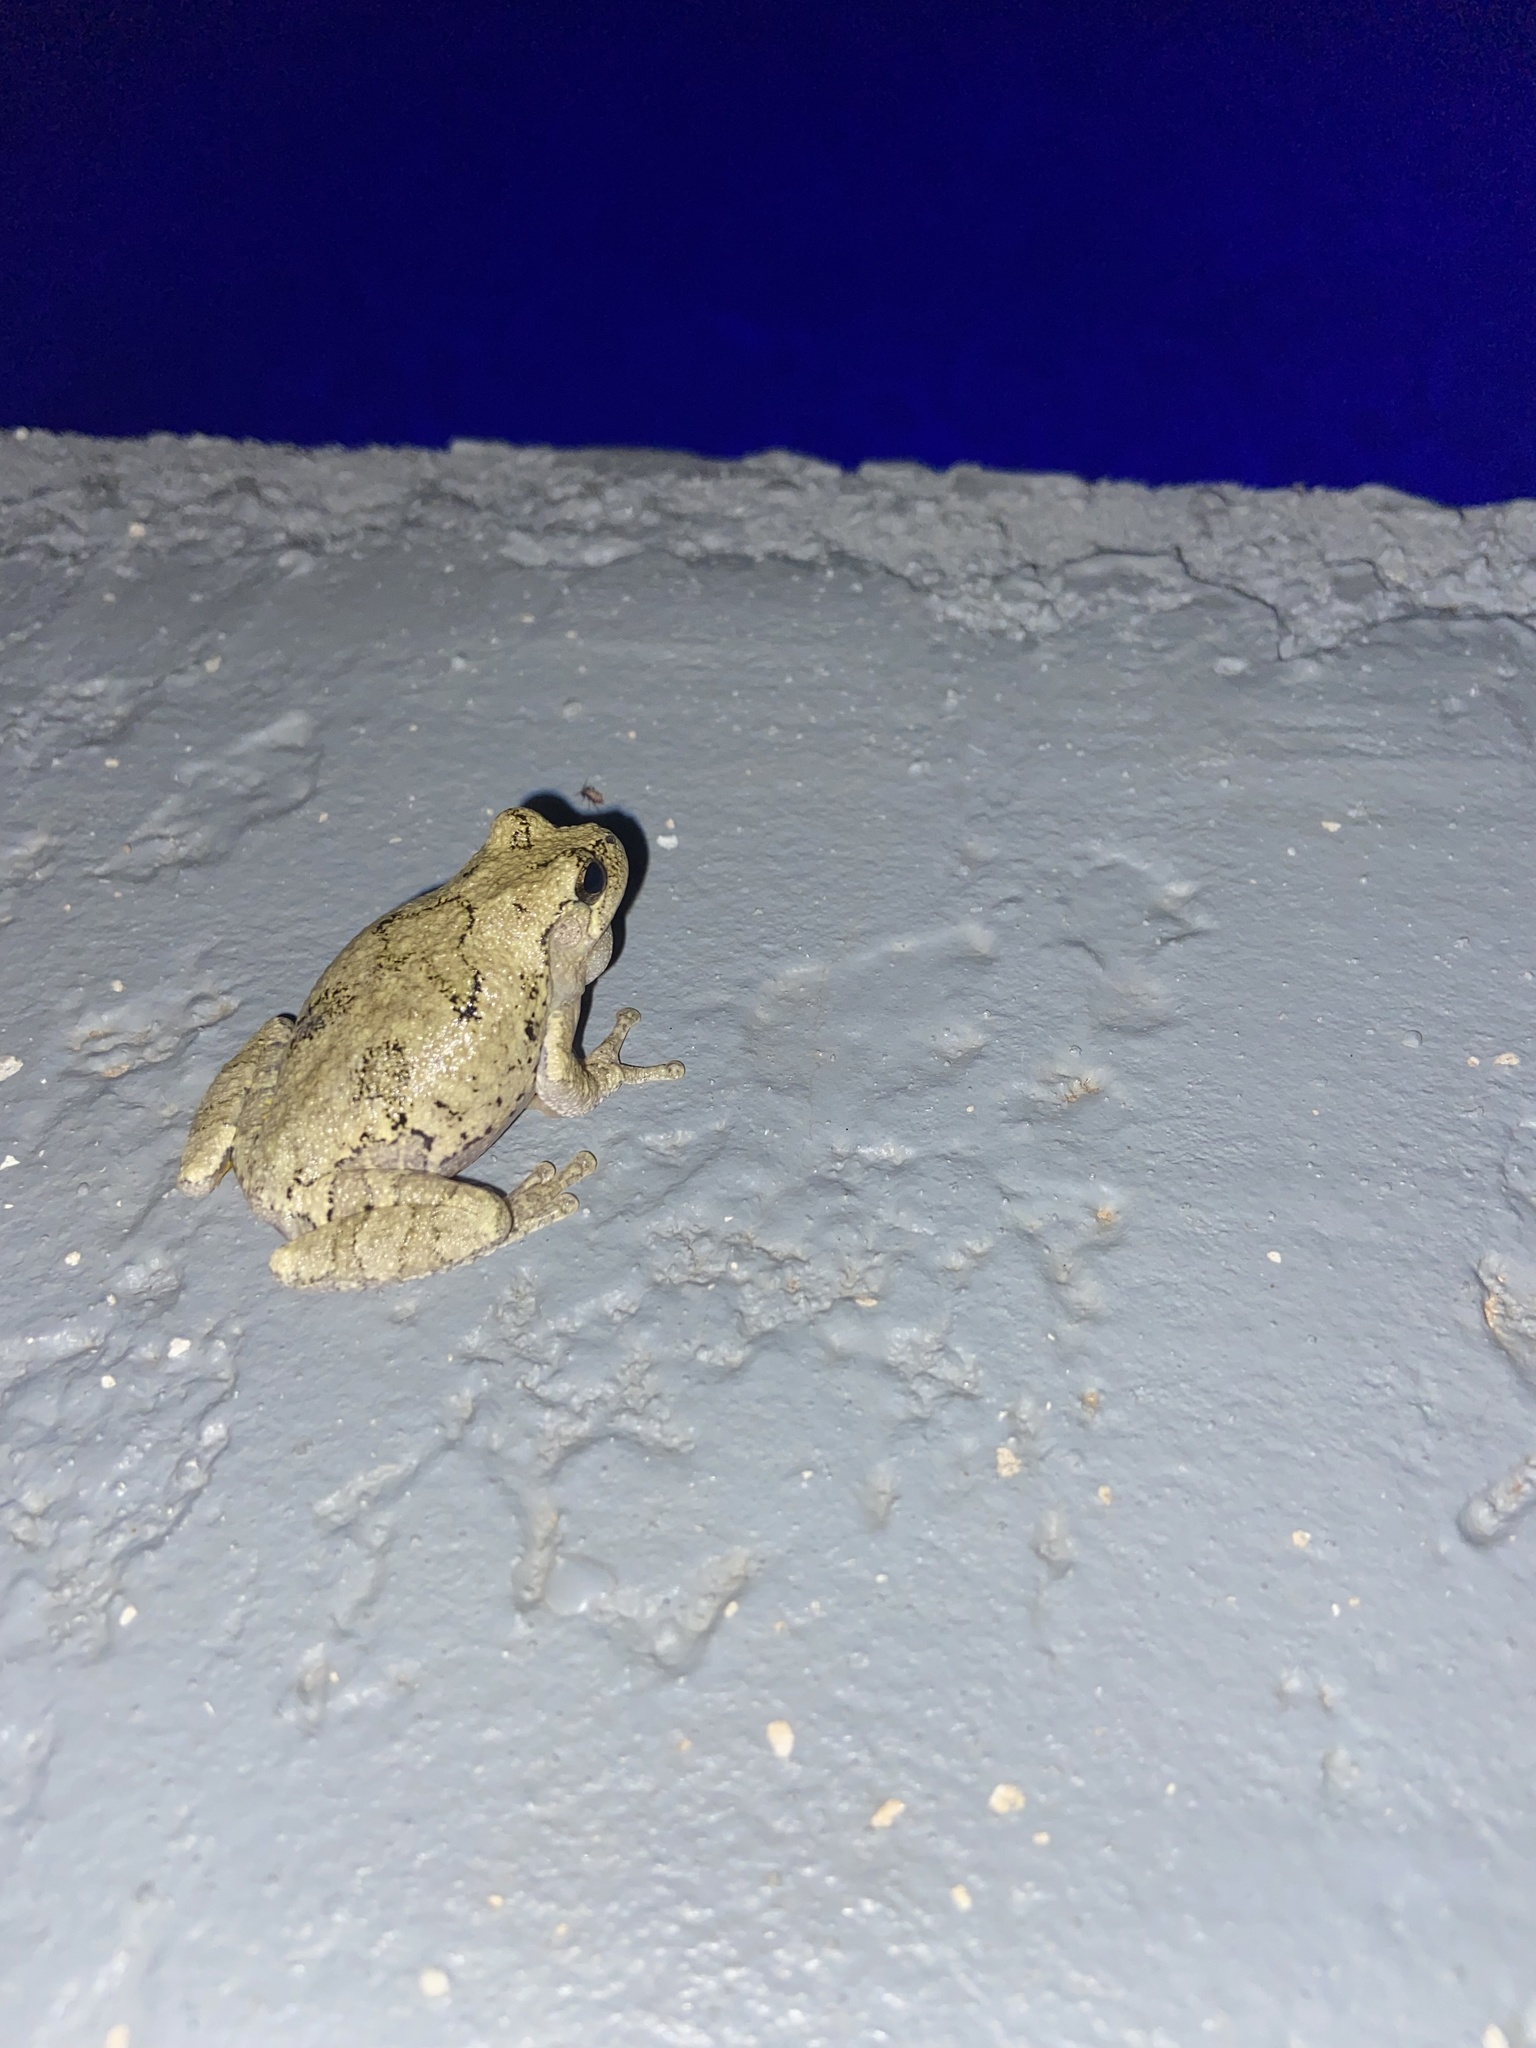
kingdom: Animalia
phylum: Chordata
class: Amphibia
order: Anura
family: Hylidae
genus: Dryophytes
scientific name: Dryophytes chrysoscelis
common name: Cope's gray treefrog
